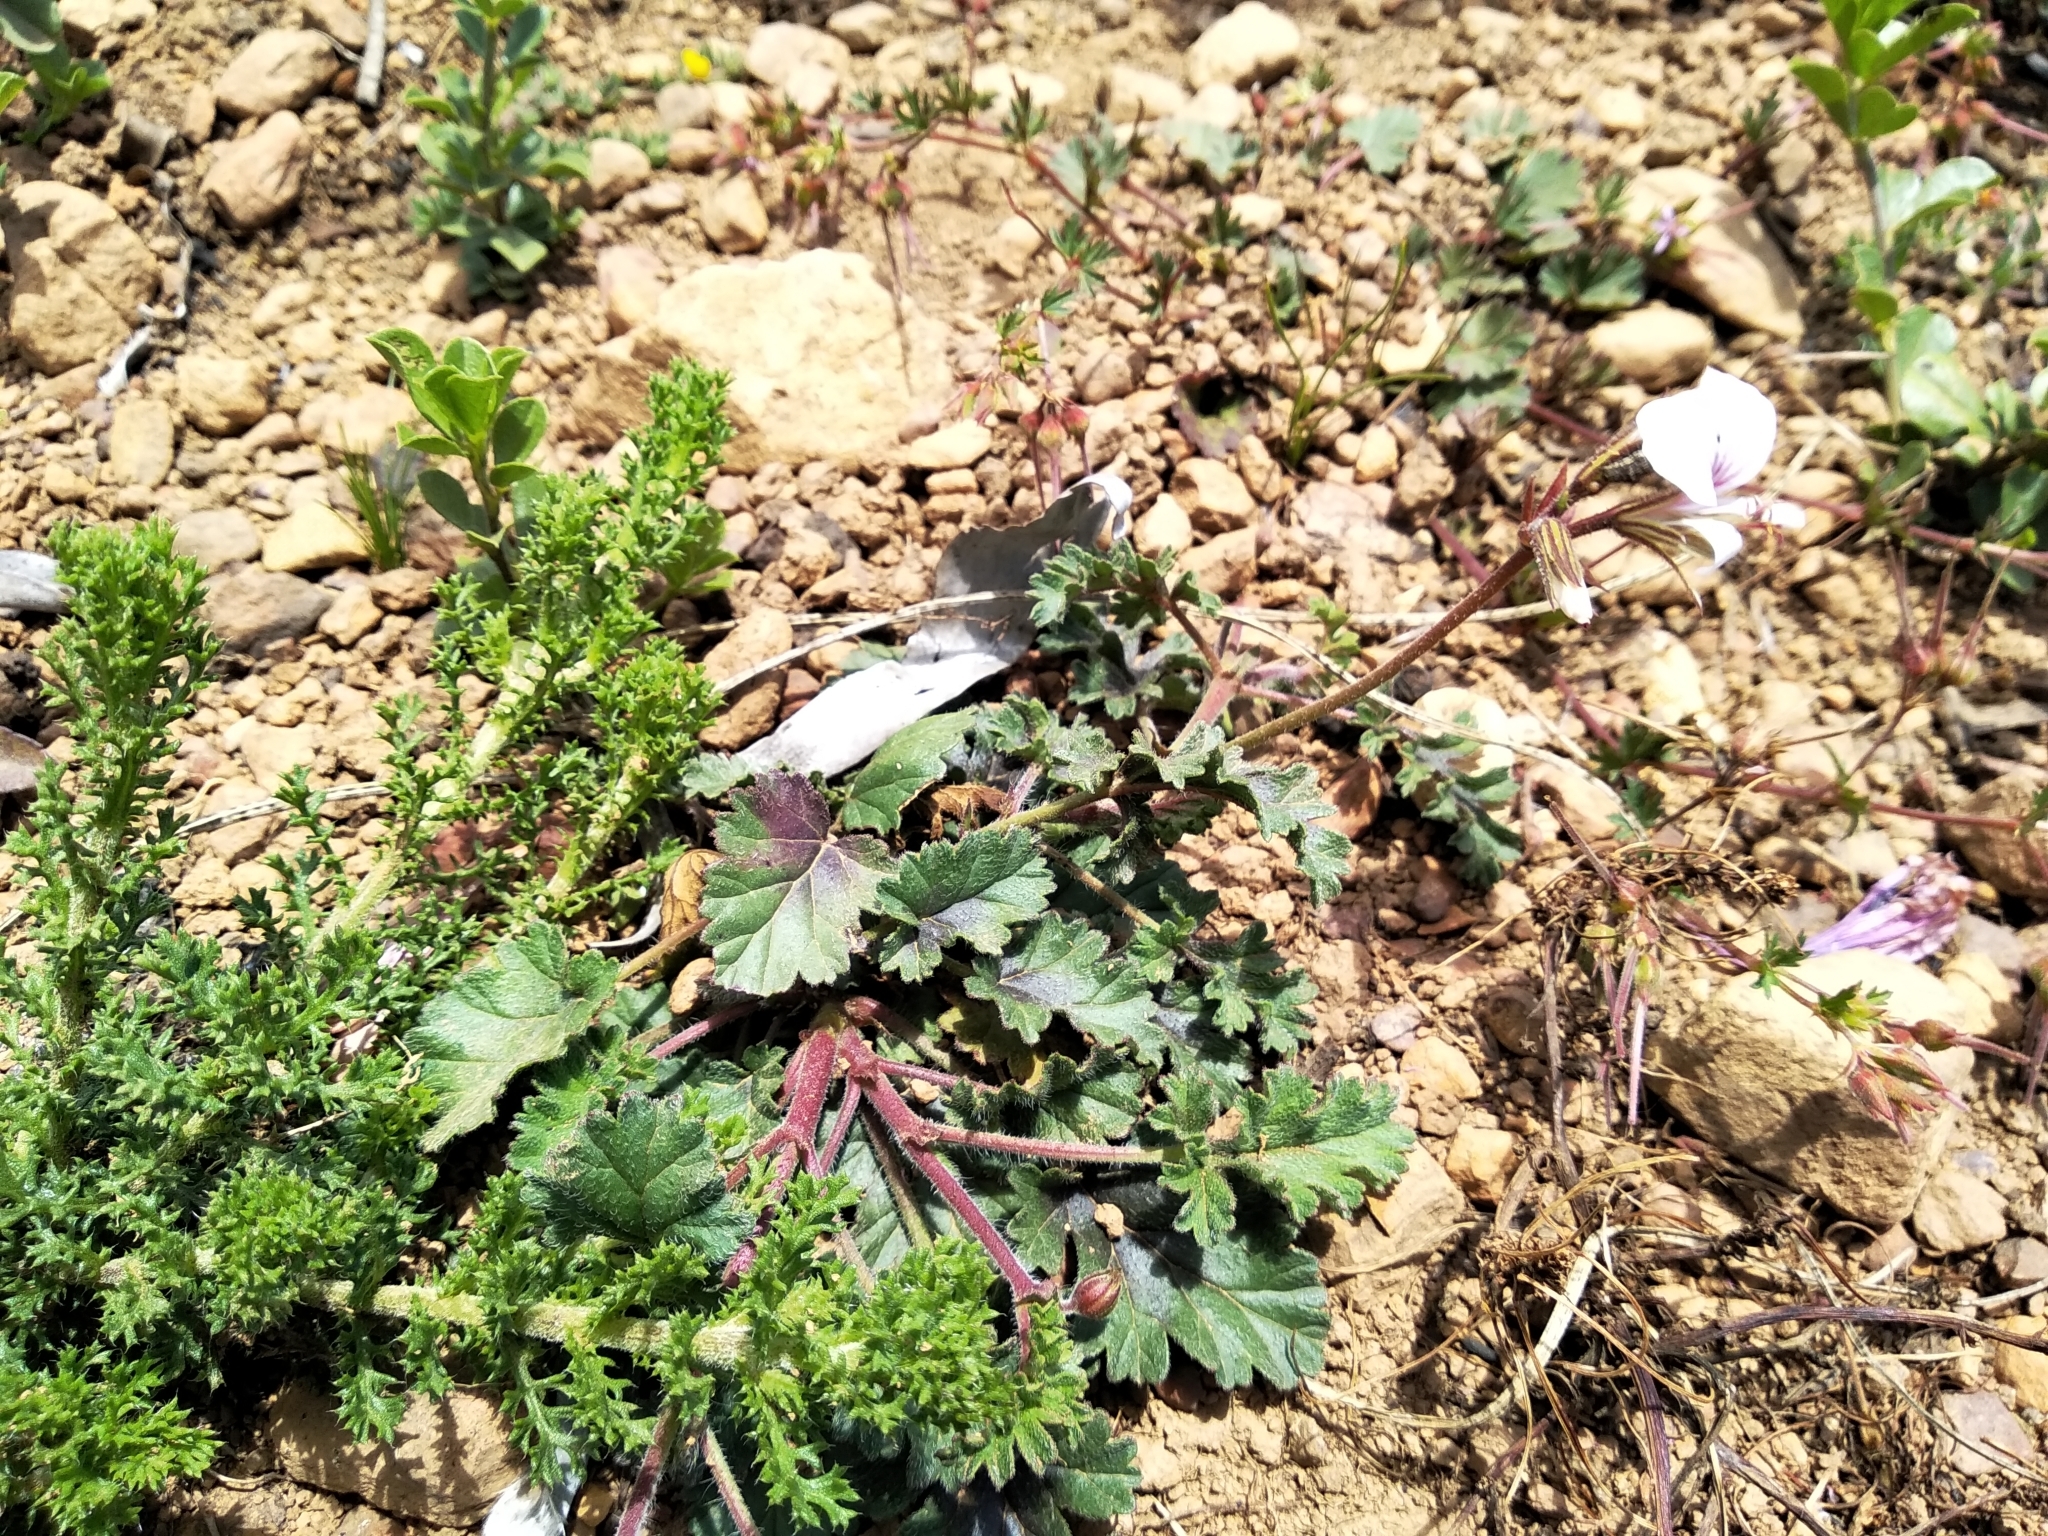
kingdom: Plantae
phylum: Tracheophyta
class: Magnoliopsida
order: Geraniales
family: Geraniaceae
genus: Pelargonium
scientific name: Pelargonium candicans
